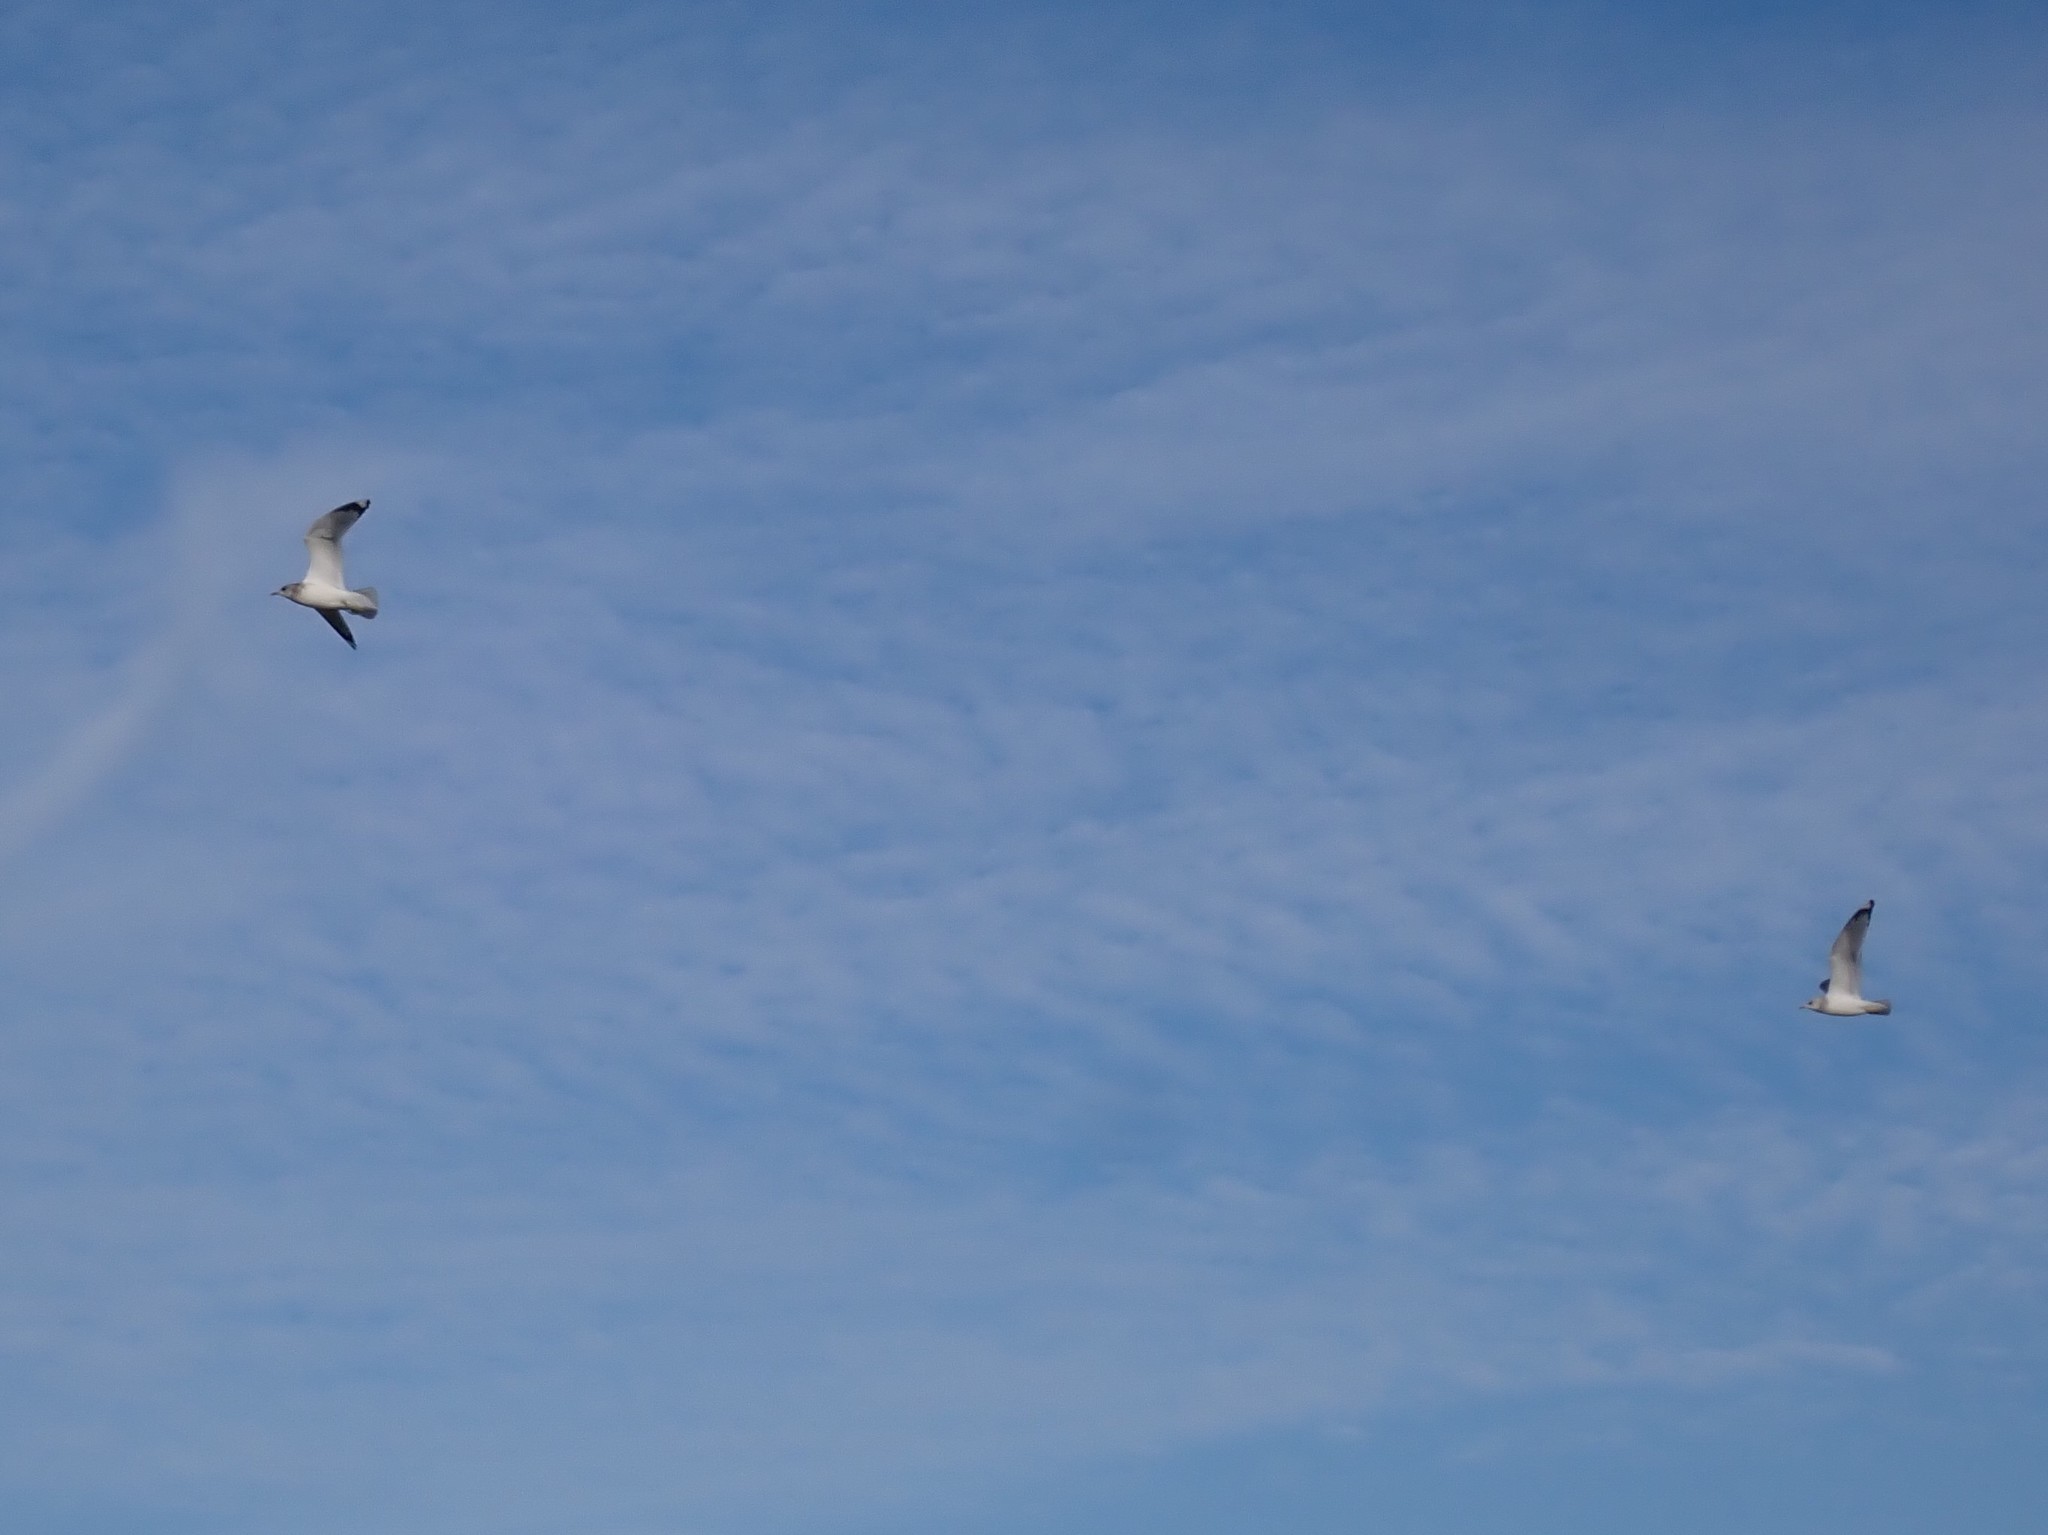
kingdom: Animalia
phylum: Chordata
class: Aves
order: Charadriiformes
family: Laridae
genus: Larus
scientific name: Larus brachyrhynchus
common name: Short-billed gull
